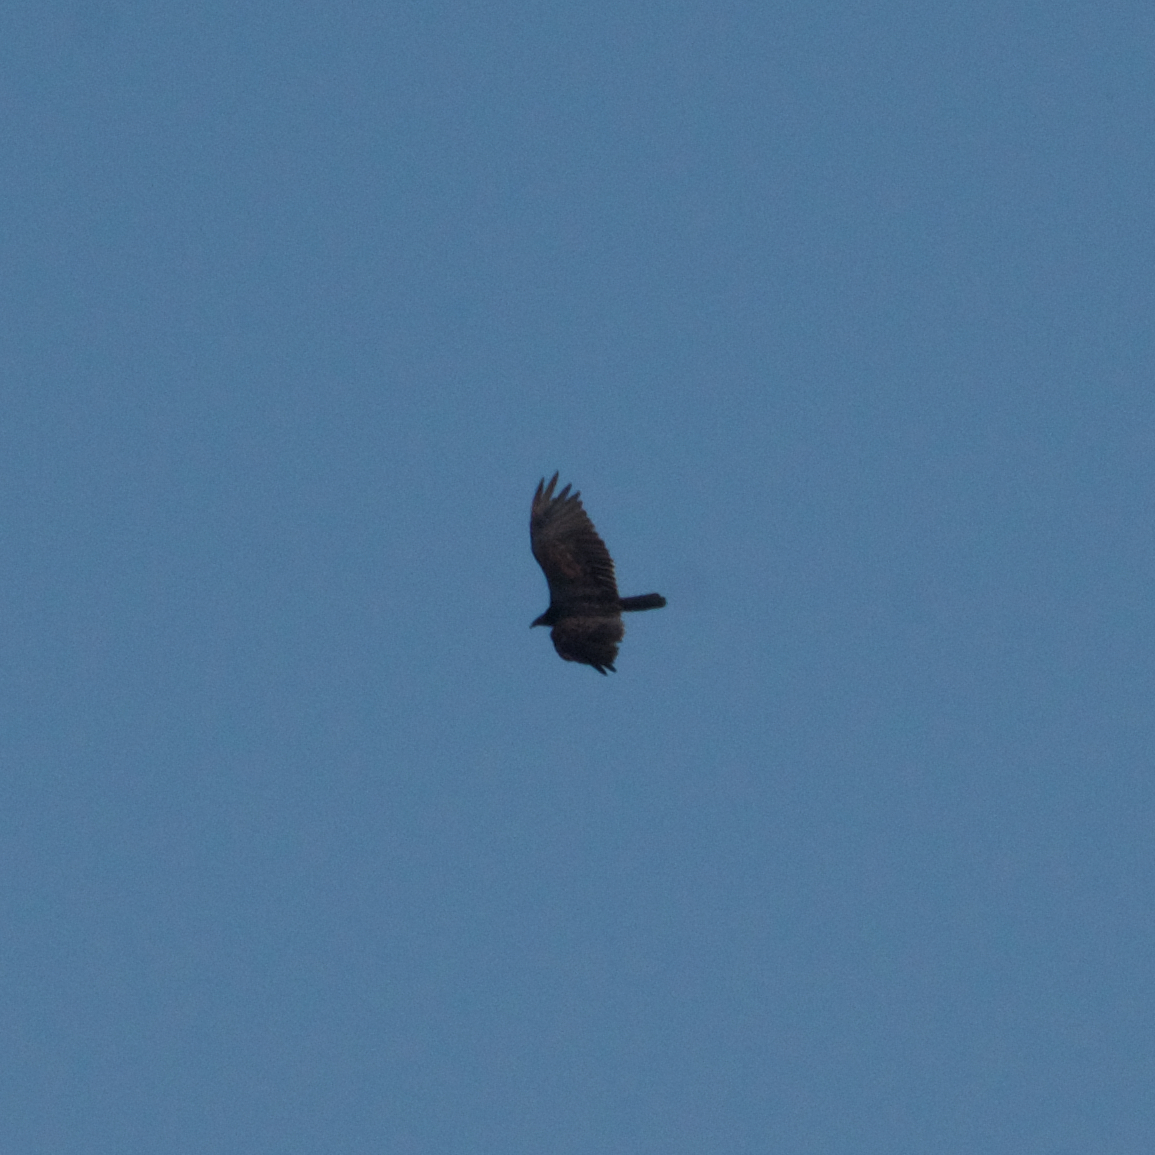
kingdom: Animalia
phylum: Chordata
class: Aves
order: Accipitriformes
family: Cathartidae
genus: Cathartes
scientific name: Cathartes aura
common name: Turkey vulture
